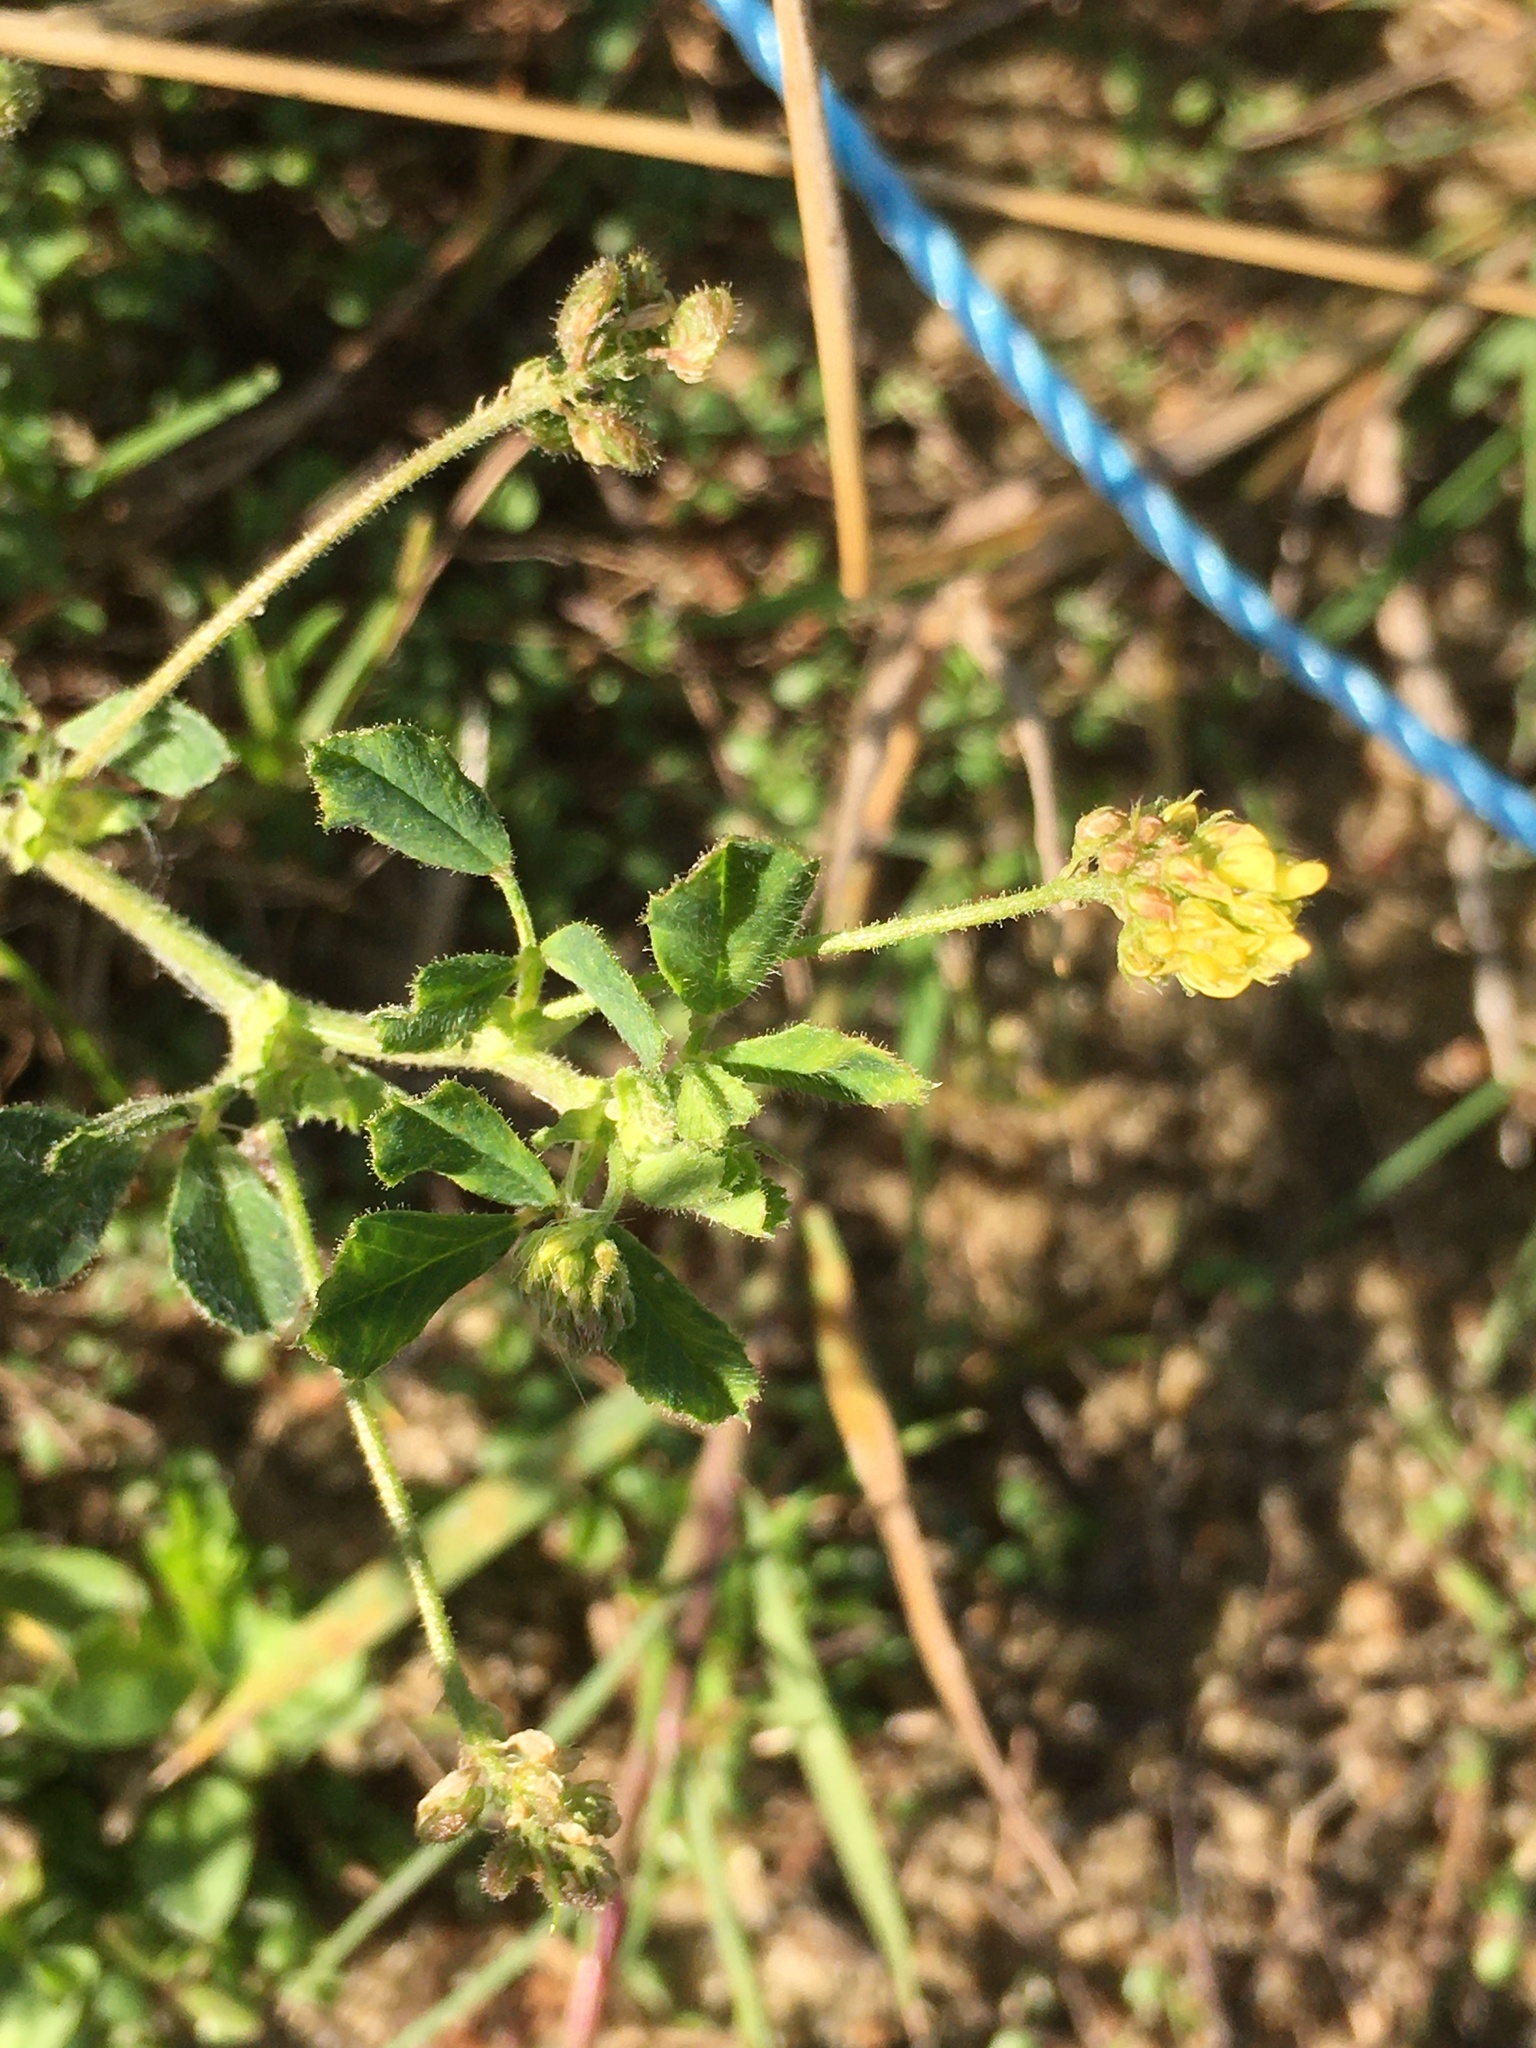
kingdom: Plantae
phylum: Tracheophyta
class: Magnoliopsida
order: Fabales
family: Fabaceae
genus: Medicago
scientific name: Medicago lupulina
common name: Black medick
